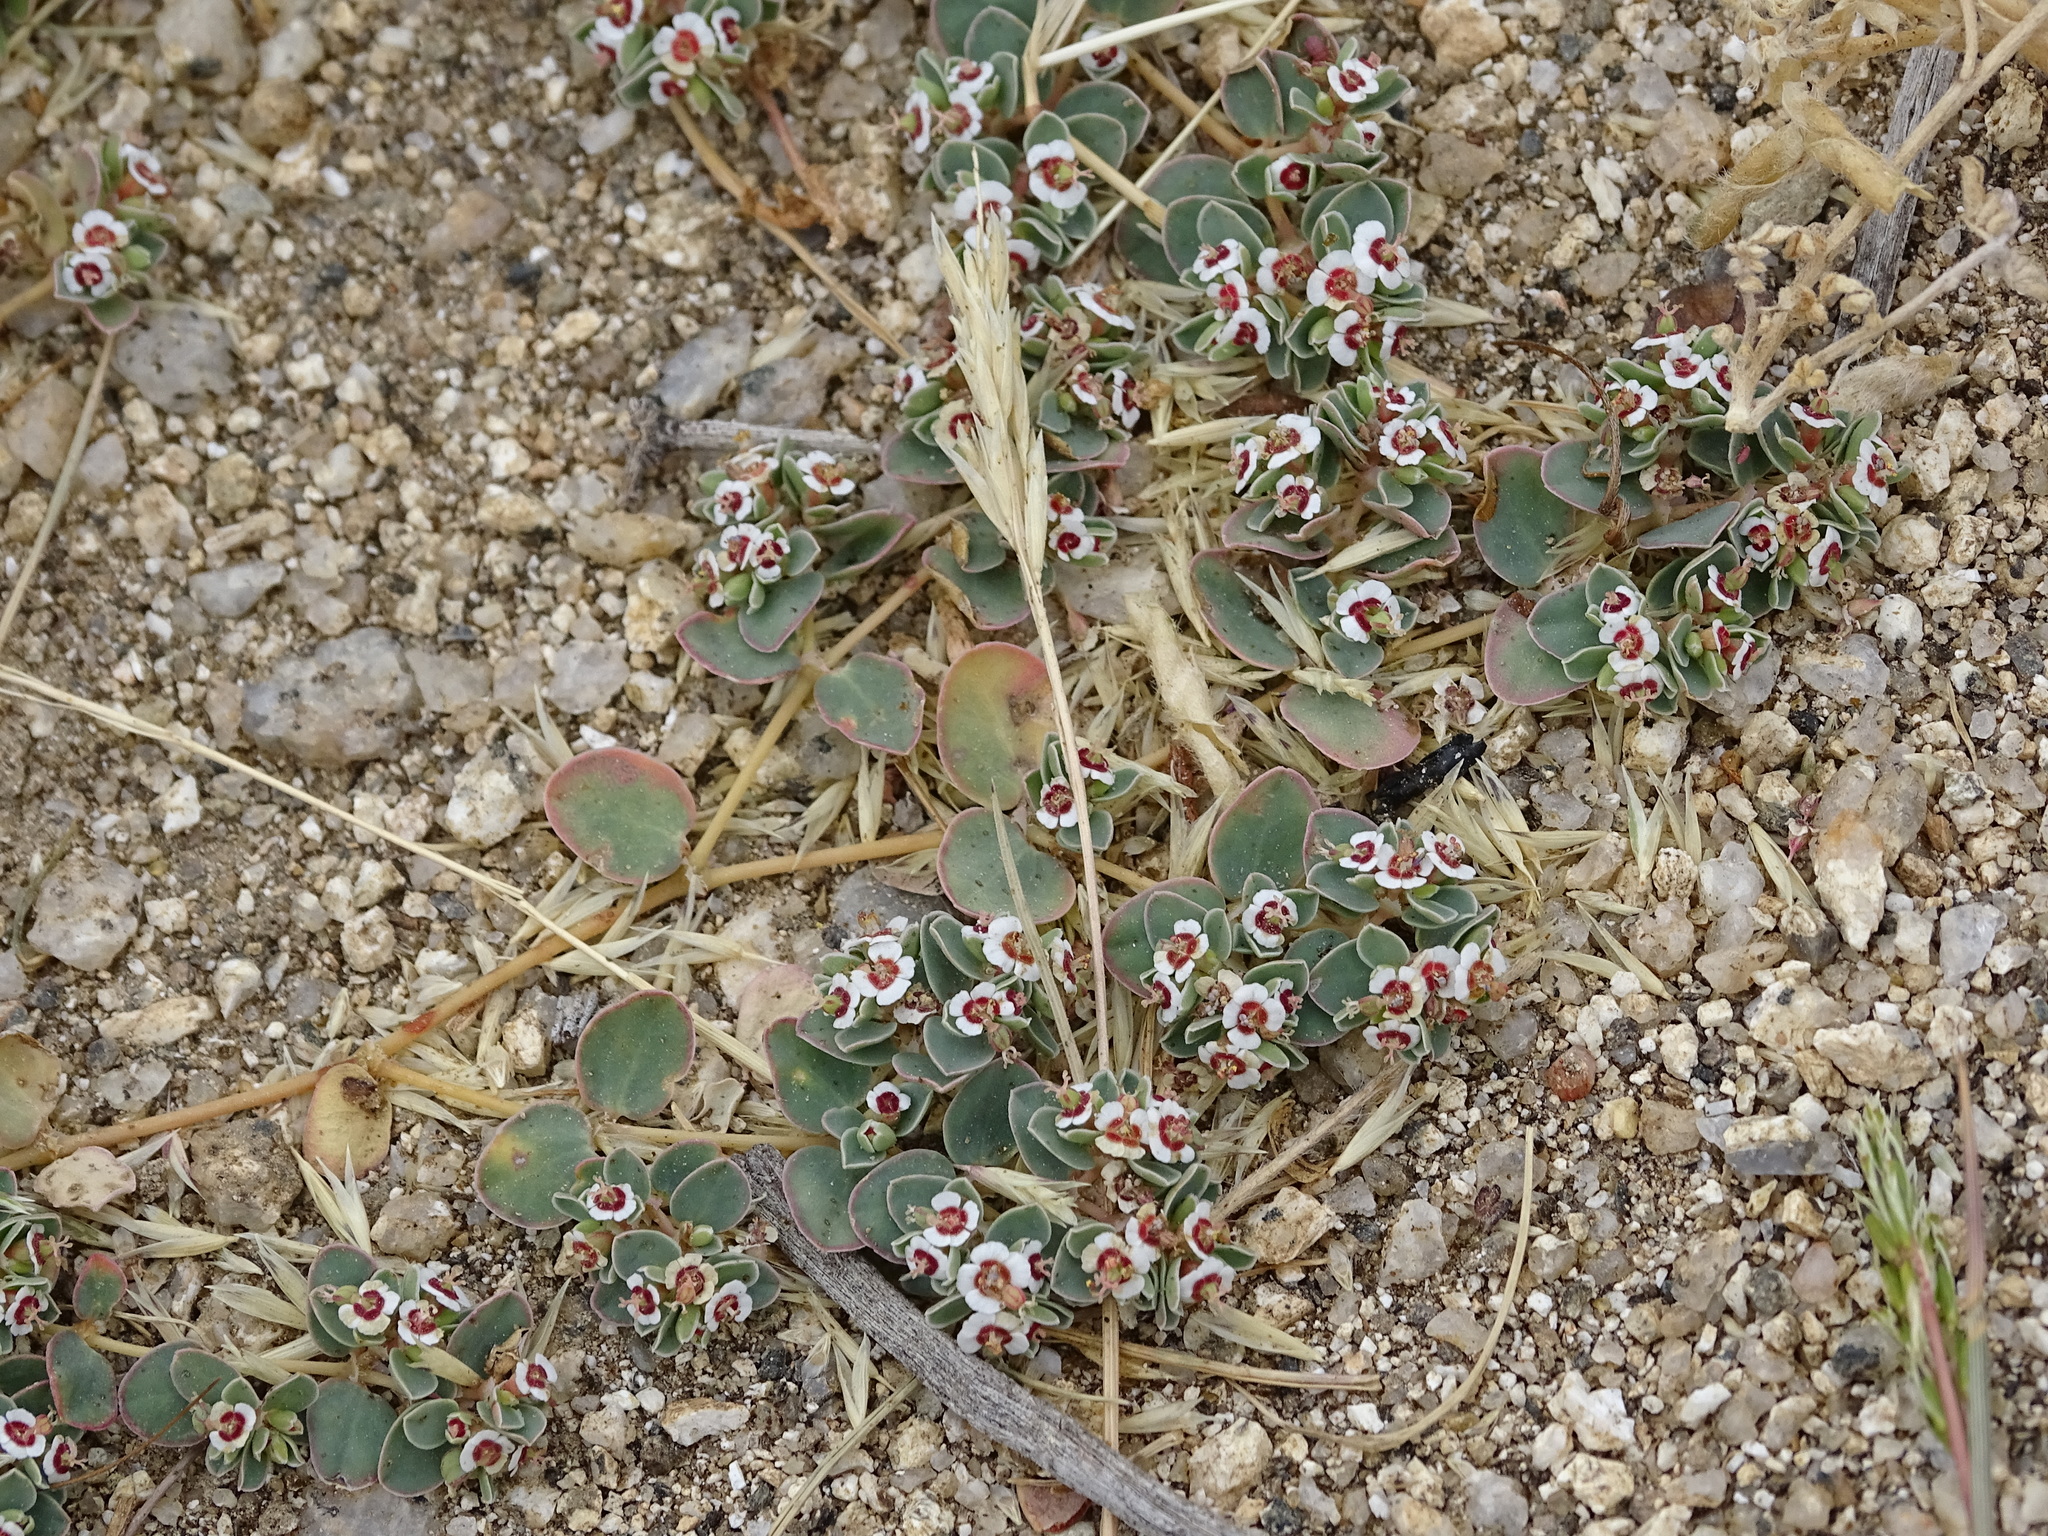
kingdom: Plantae
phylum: Tracheophyta
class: Magnoliopsida
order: Malpighiales
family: Euphorbiaceae
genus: Euphorbia
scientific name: Euphorbia albomarginata
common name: Whitemargin sandmat
